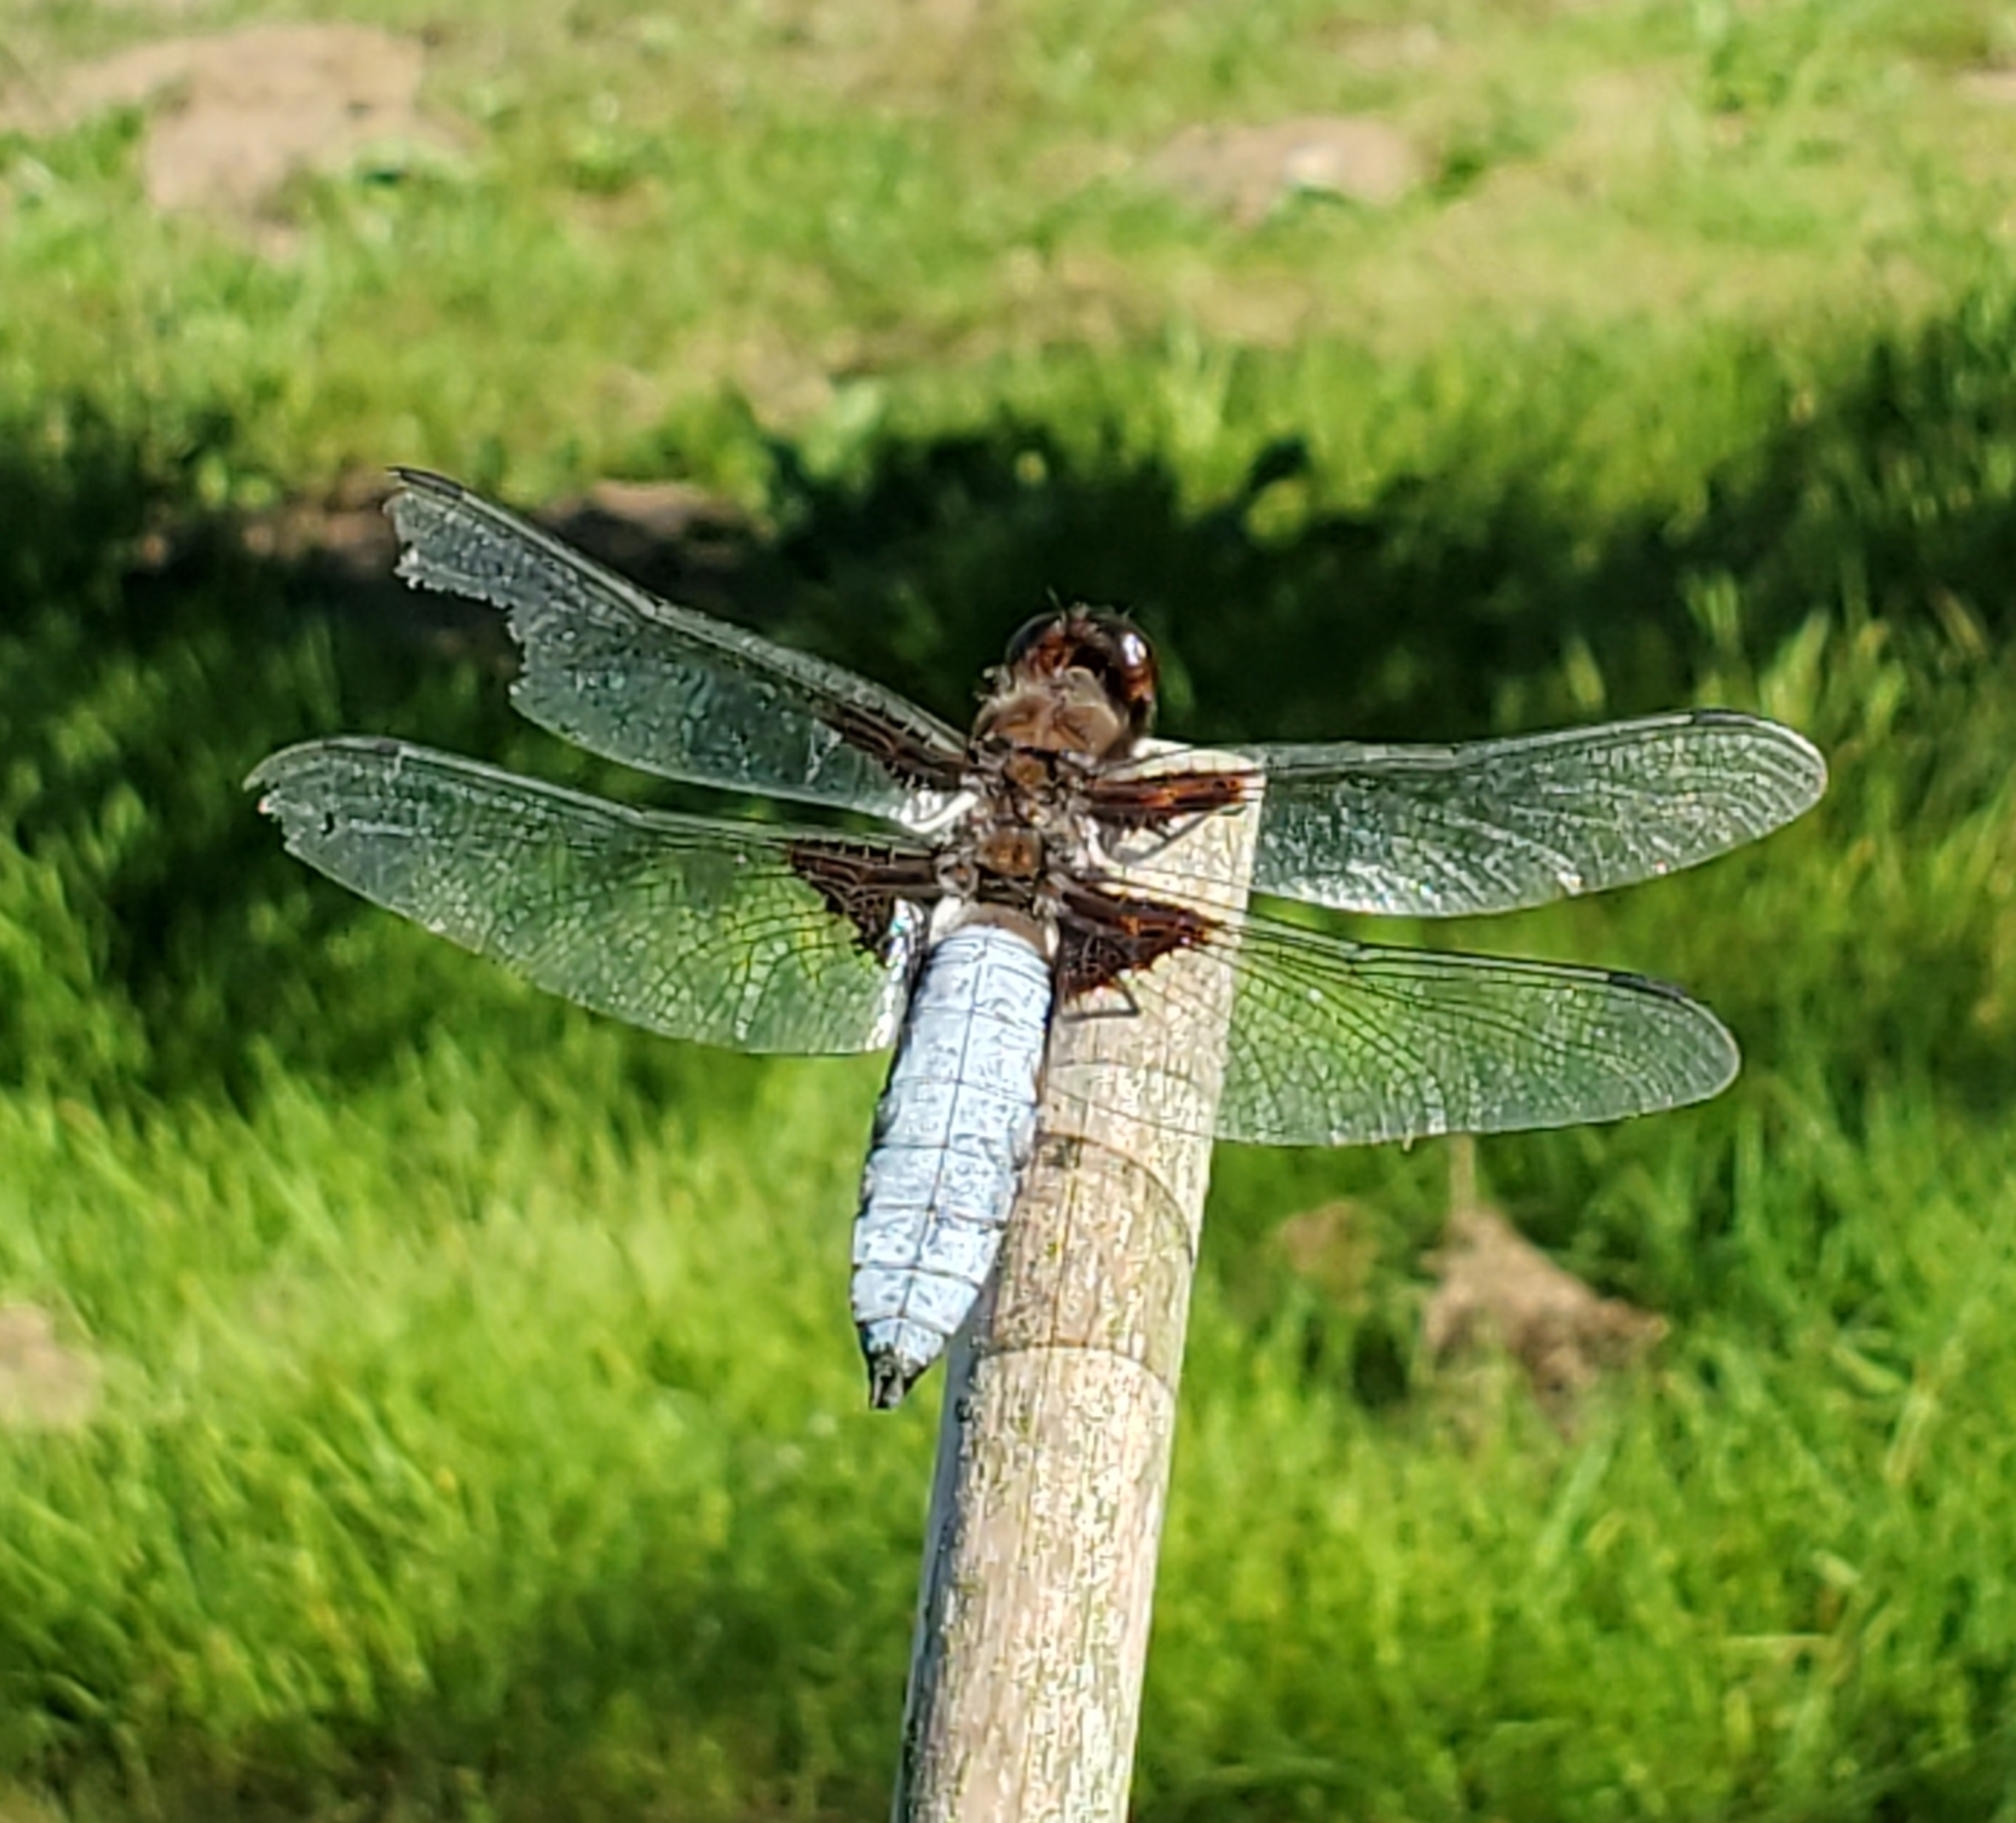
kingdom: Animalia
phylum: Arthropoda
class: Insecta
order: Odonata
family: Libellulidae
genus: Libellula
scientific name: Libellula depressa
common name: Broad-bodied chaser
